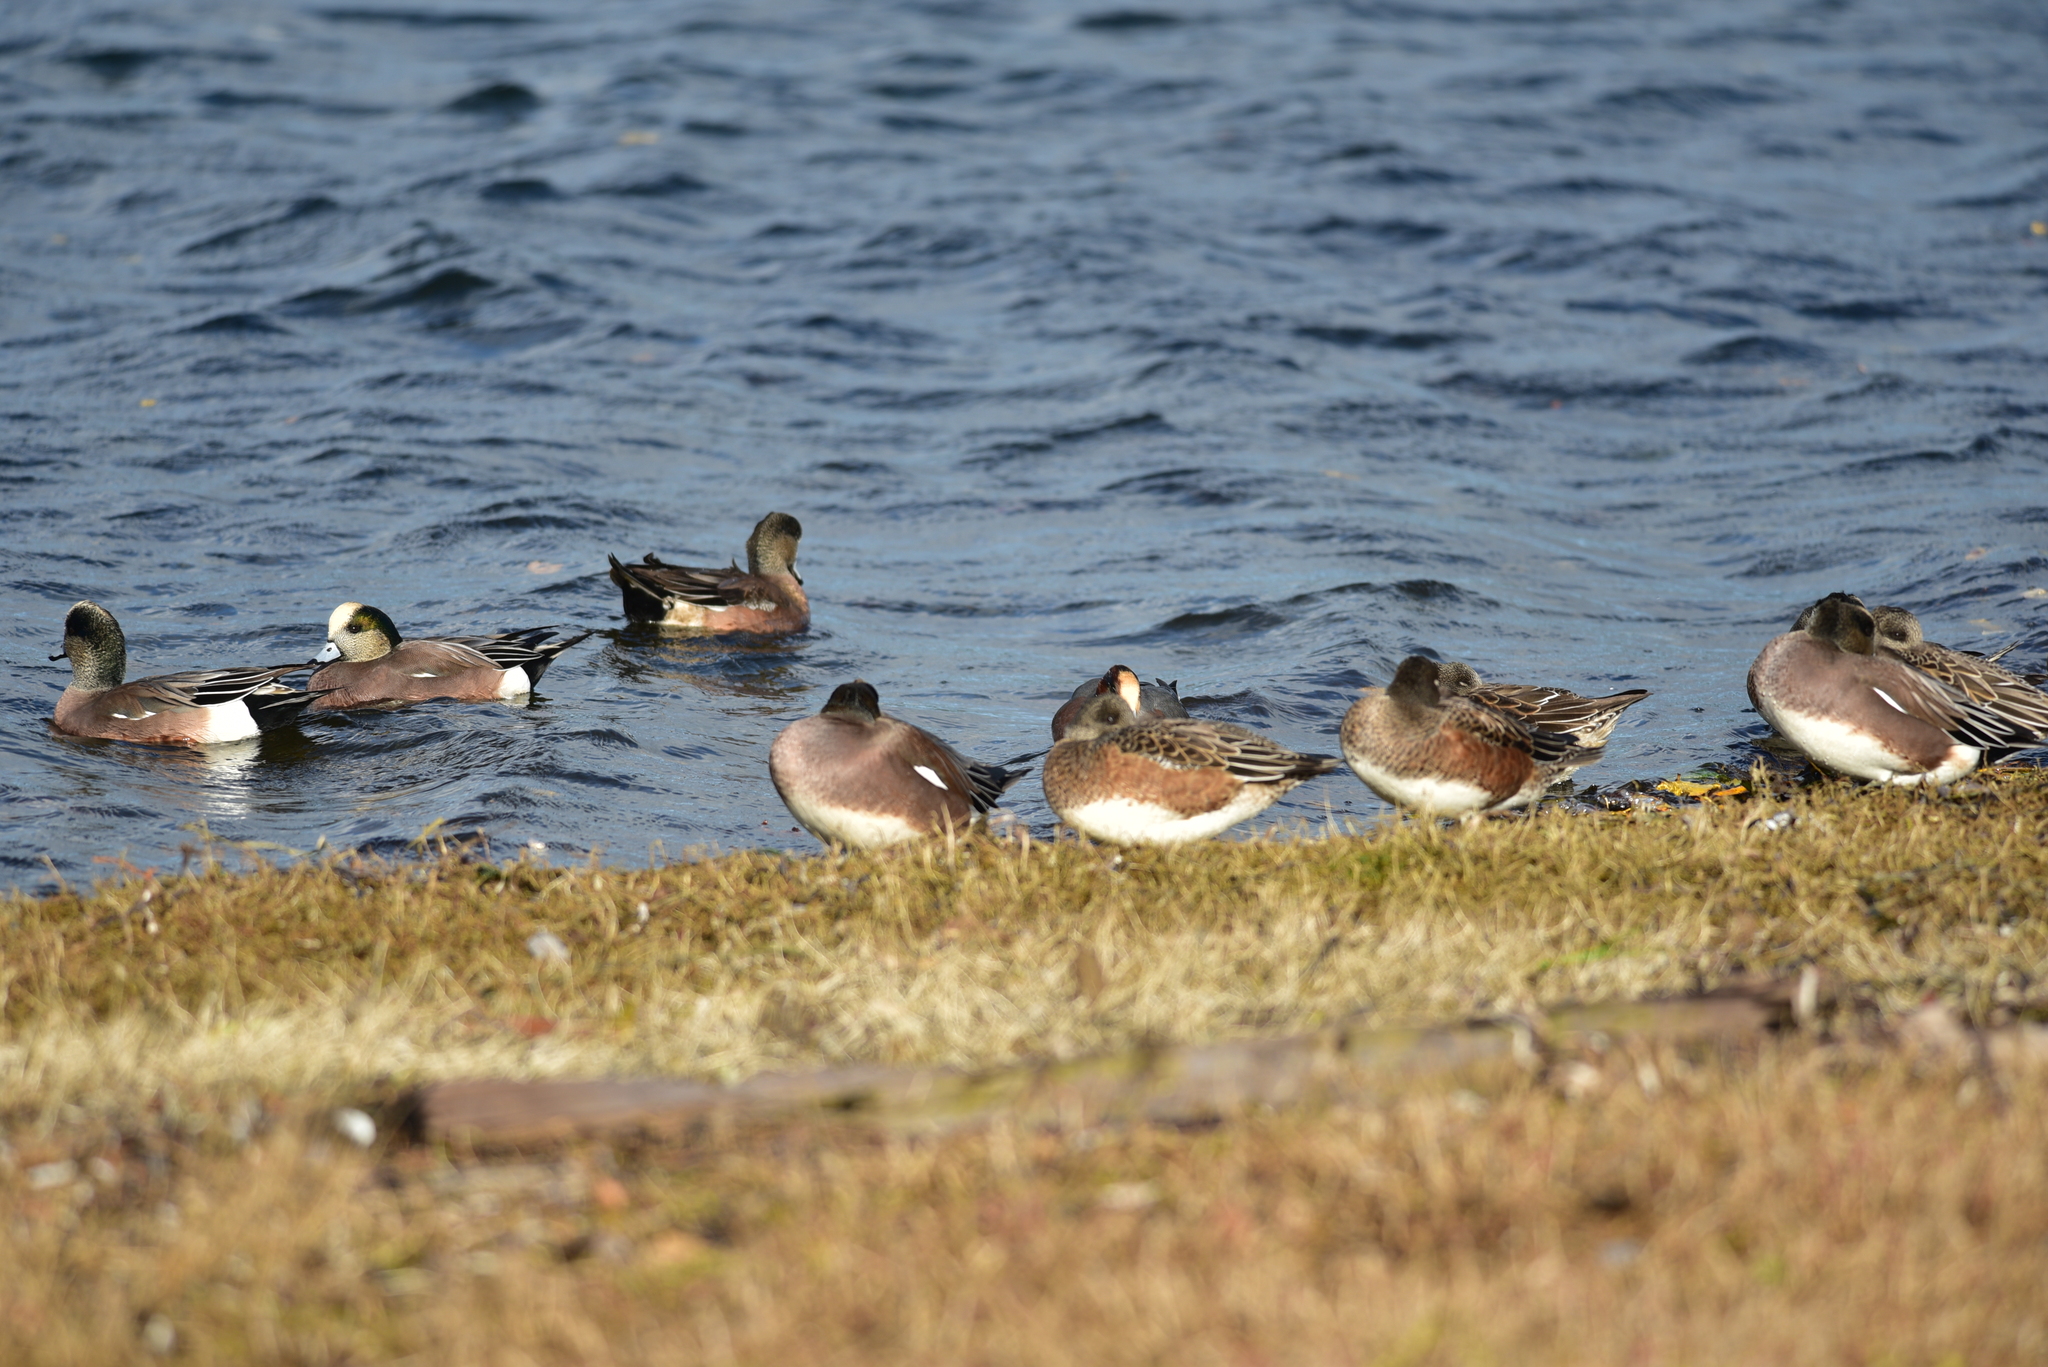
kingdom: Animalia
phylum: Chordata
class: Aves
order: Anseriformes
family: Anatidae
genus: Mareca
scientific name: Mareca americana
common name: American wigeon
